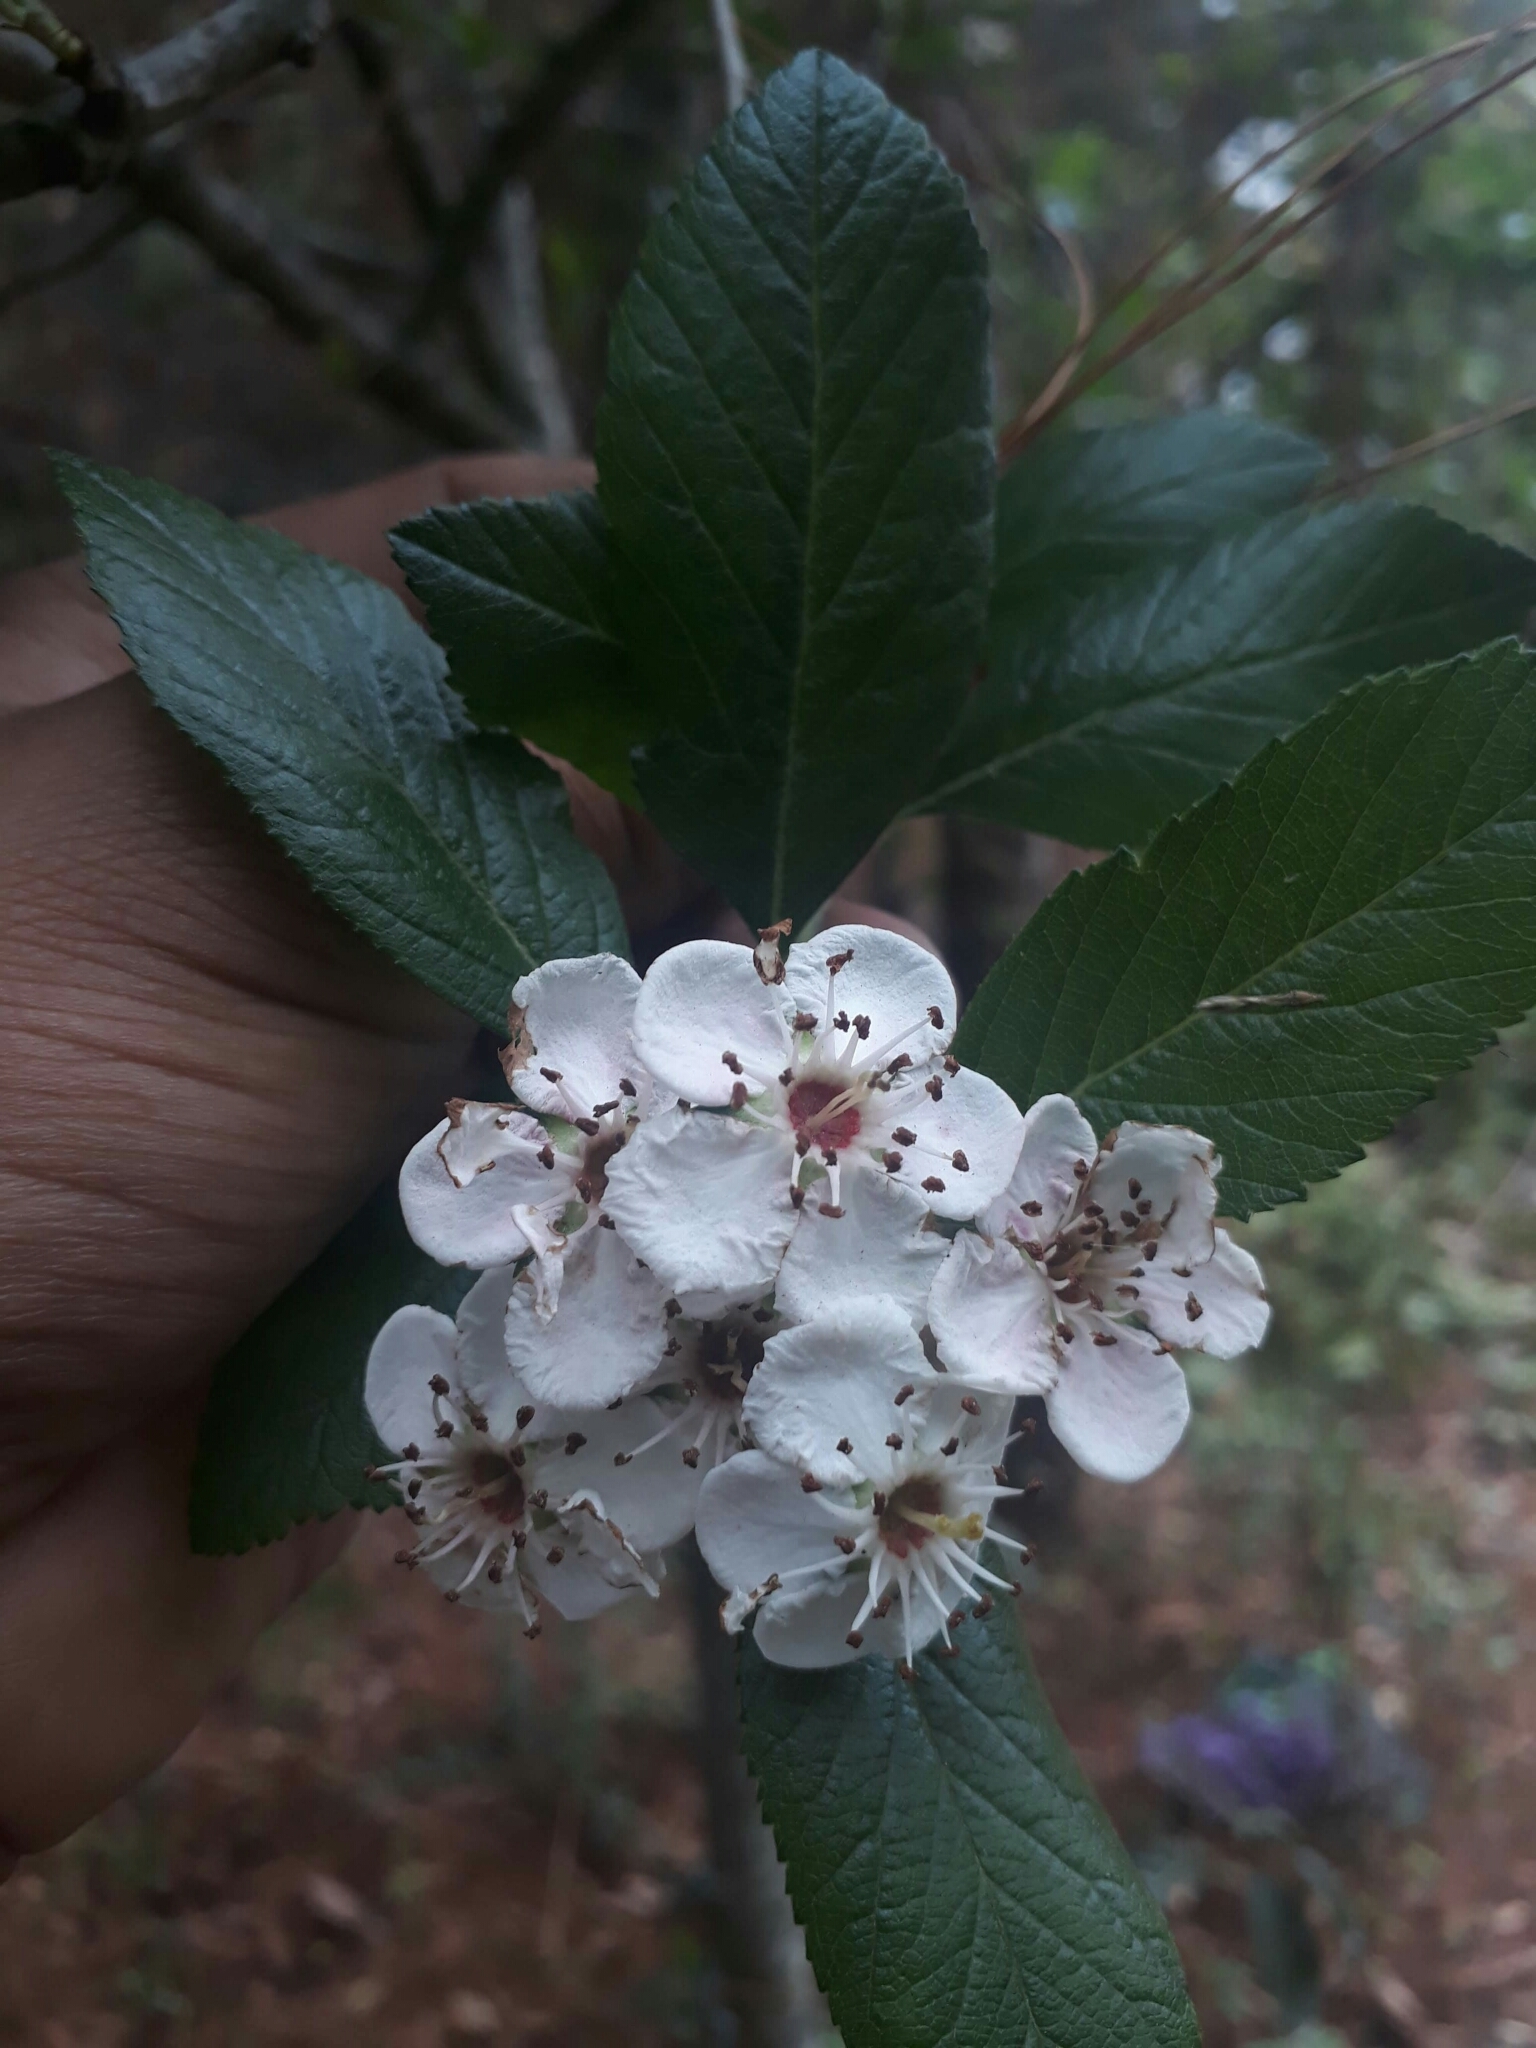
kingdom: Plantae
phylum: Tracheophyta
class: Magnoliopsida
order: Rosales
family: Rosaceae
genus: Crataegus
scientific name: Crataegus mexicana
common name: Mexican hawthorn
